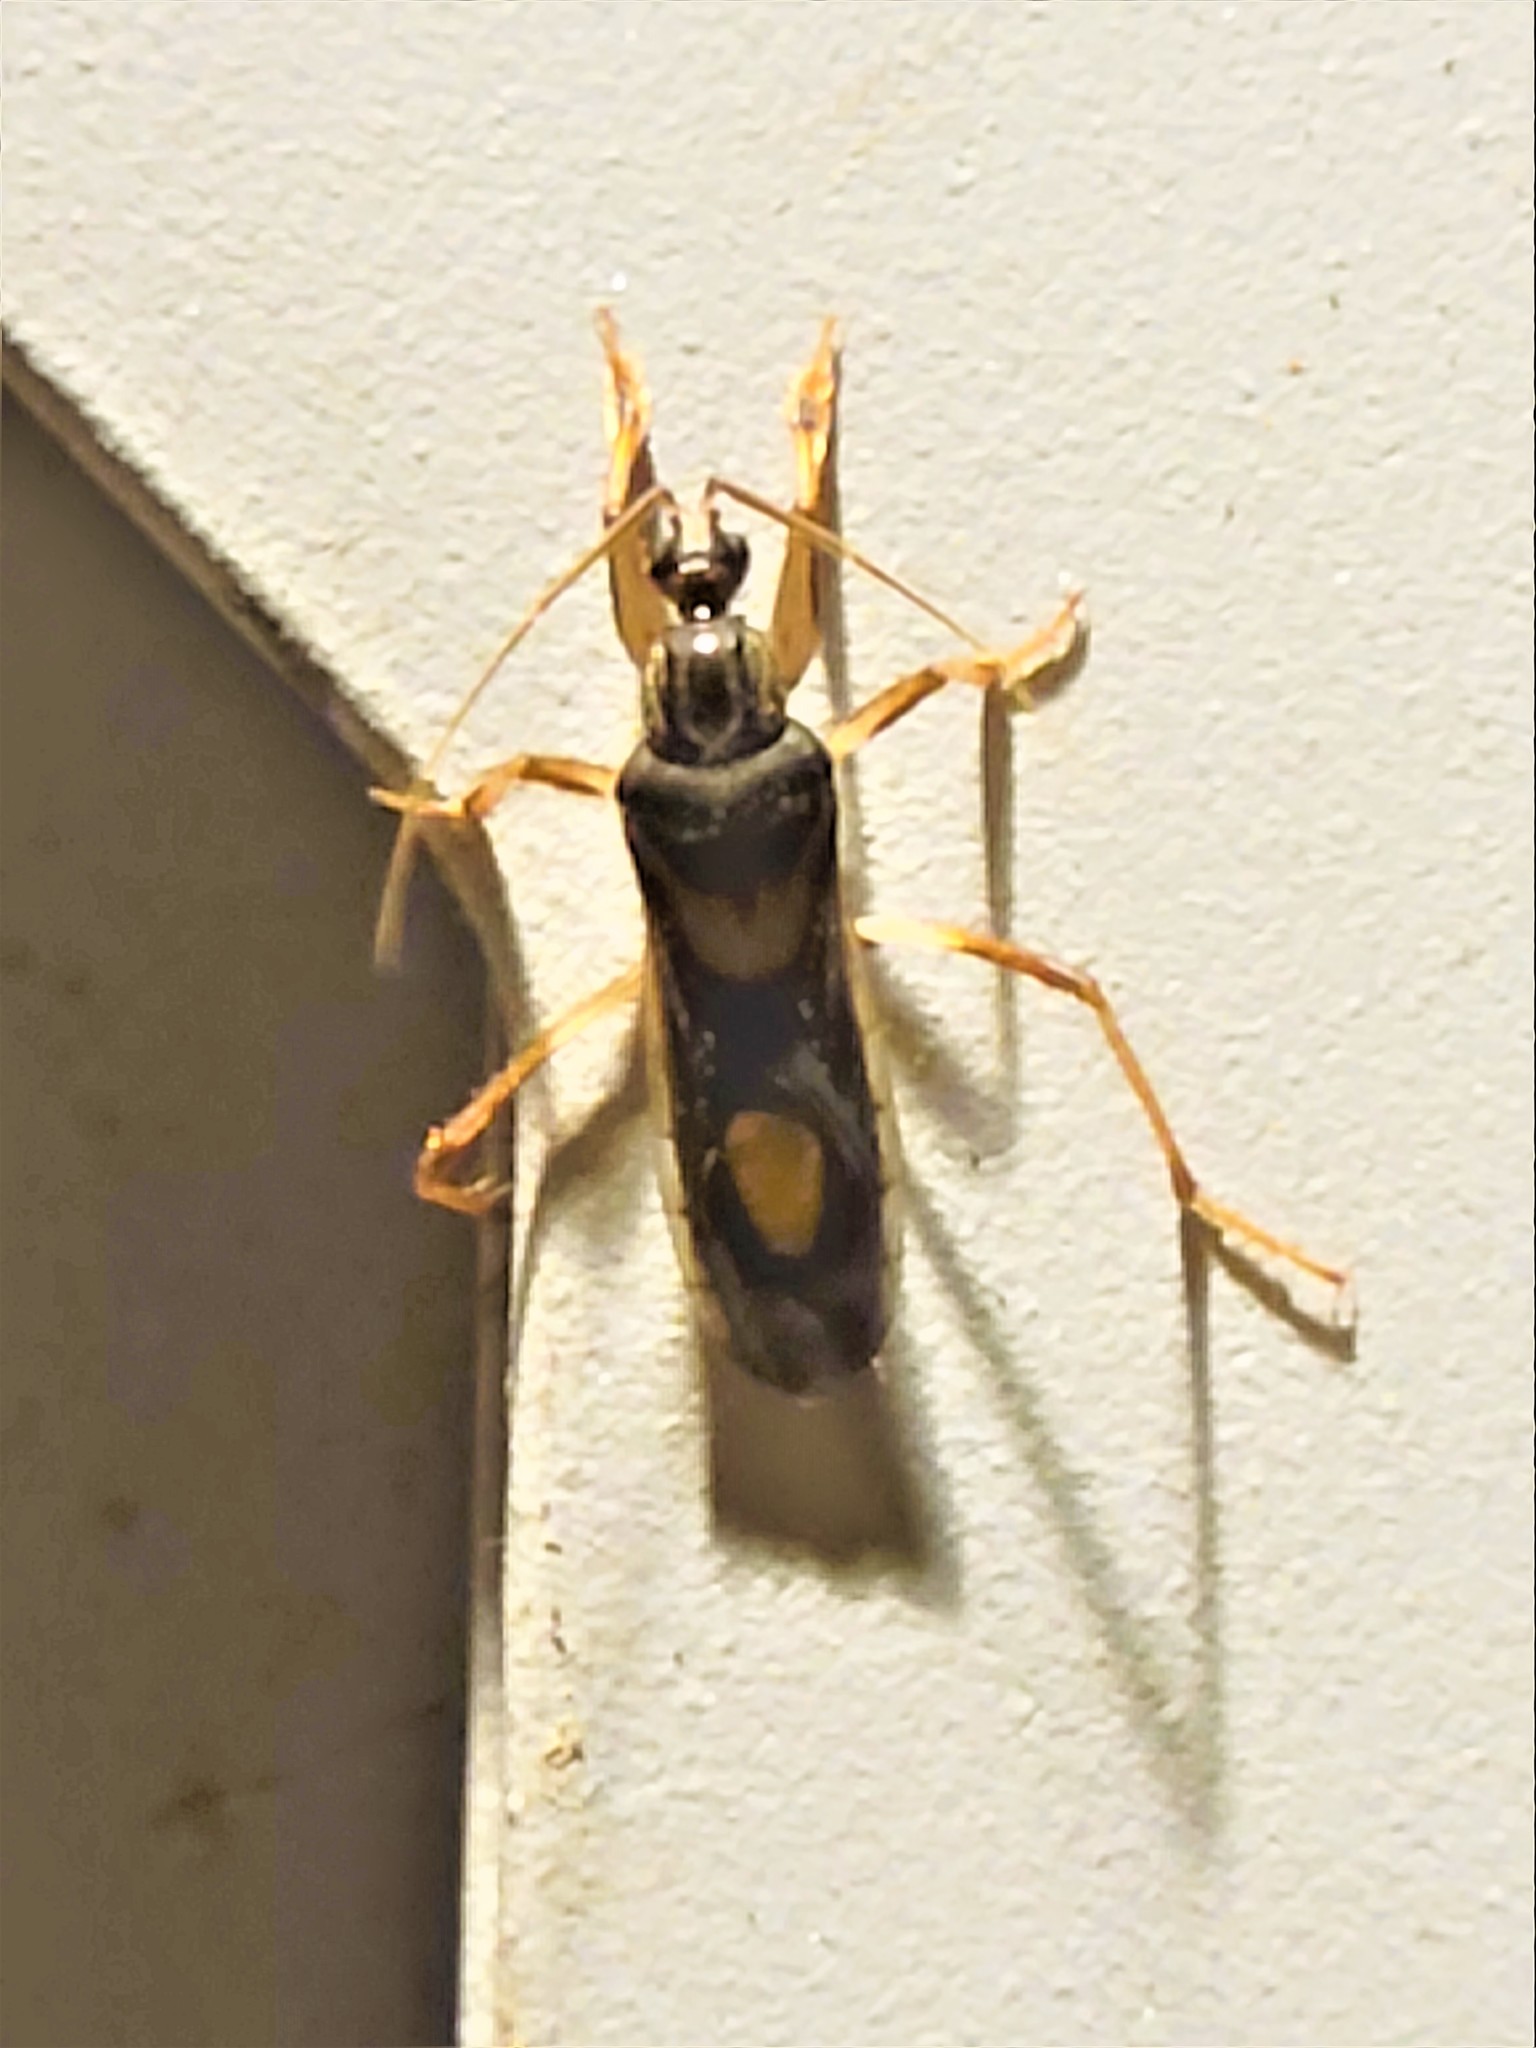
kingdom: Animalia
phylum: Arthropoda
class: Insecta
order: Hemiptera
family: Reduviidae
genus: Rasahus
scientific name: Rasahus hamatus
